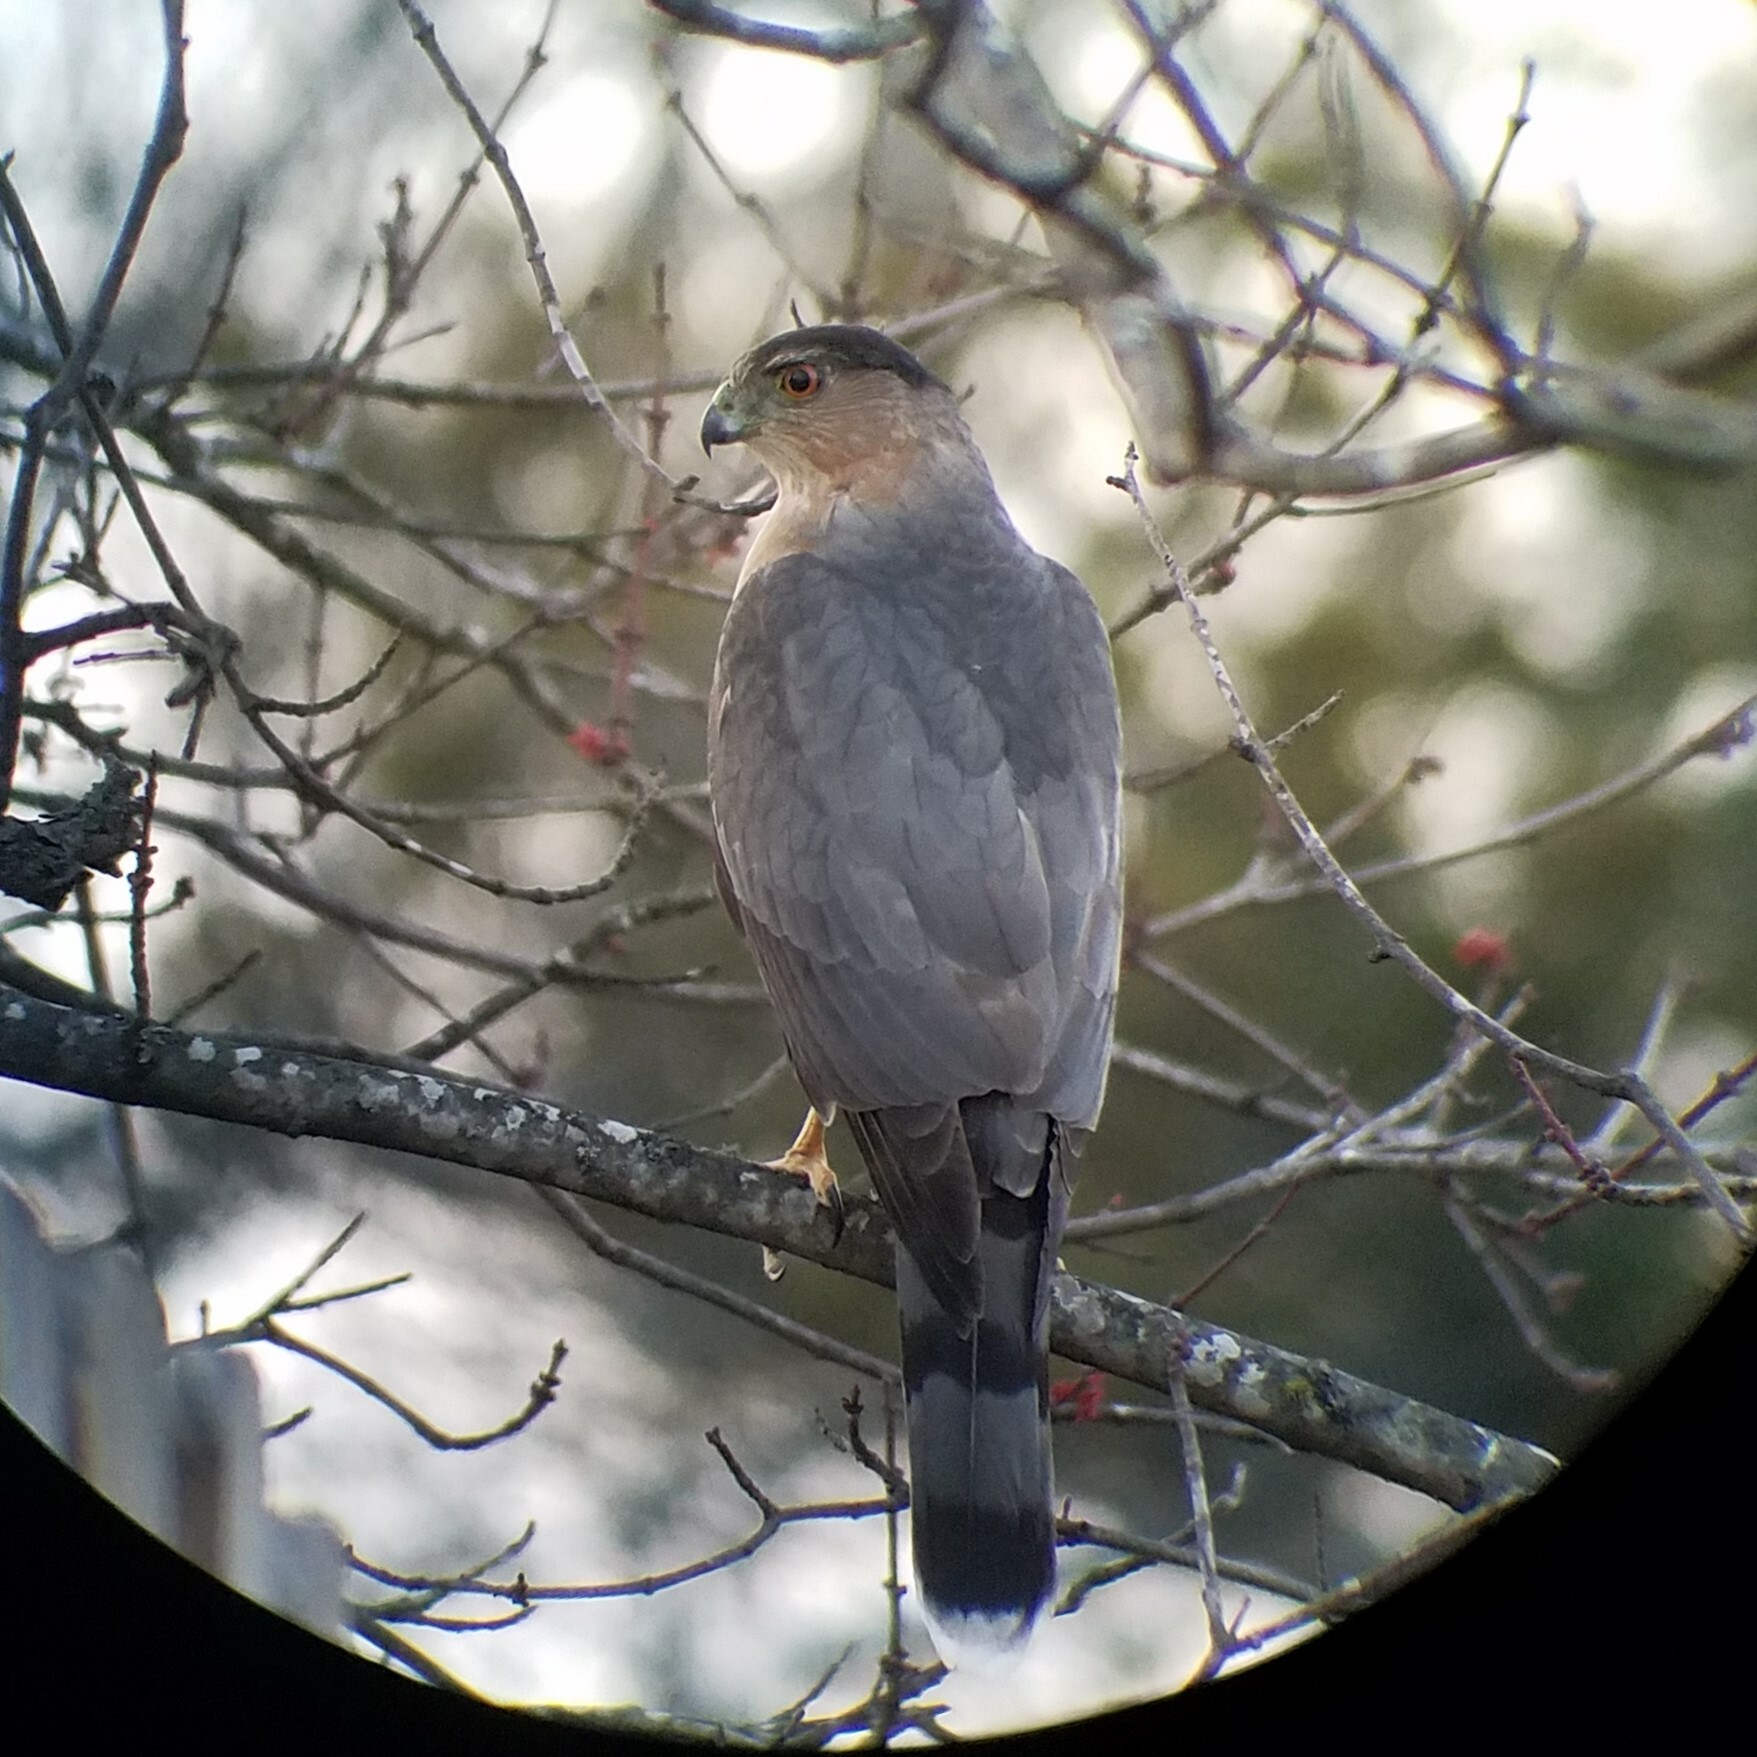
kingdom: Animalia
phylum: Chordata
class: Aves
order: Accipitriformes
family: Accipitridae
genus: Accipiter
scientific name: Accipiter cooperii
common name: Cooper's hawk
